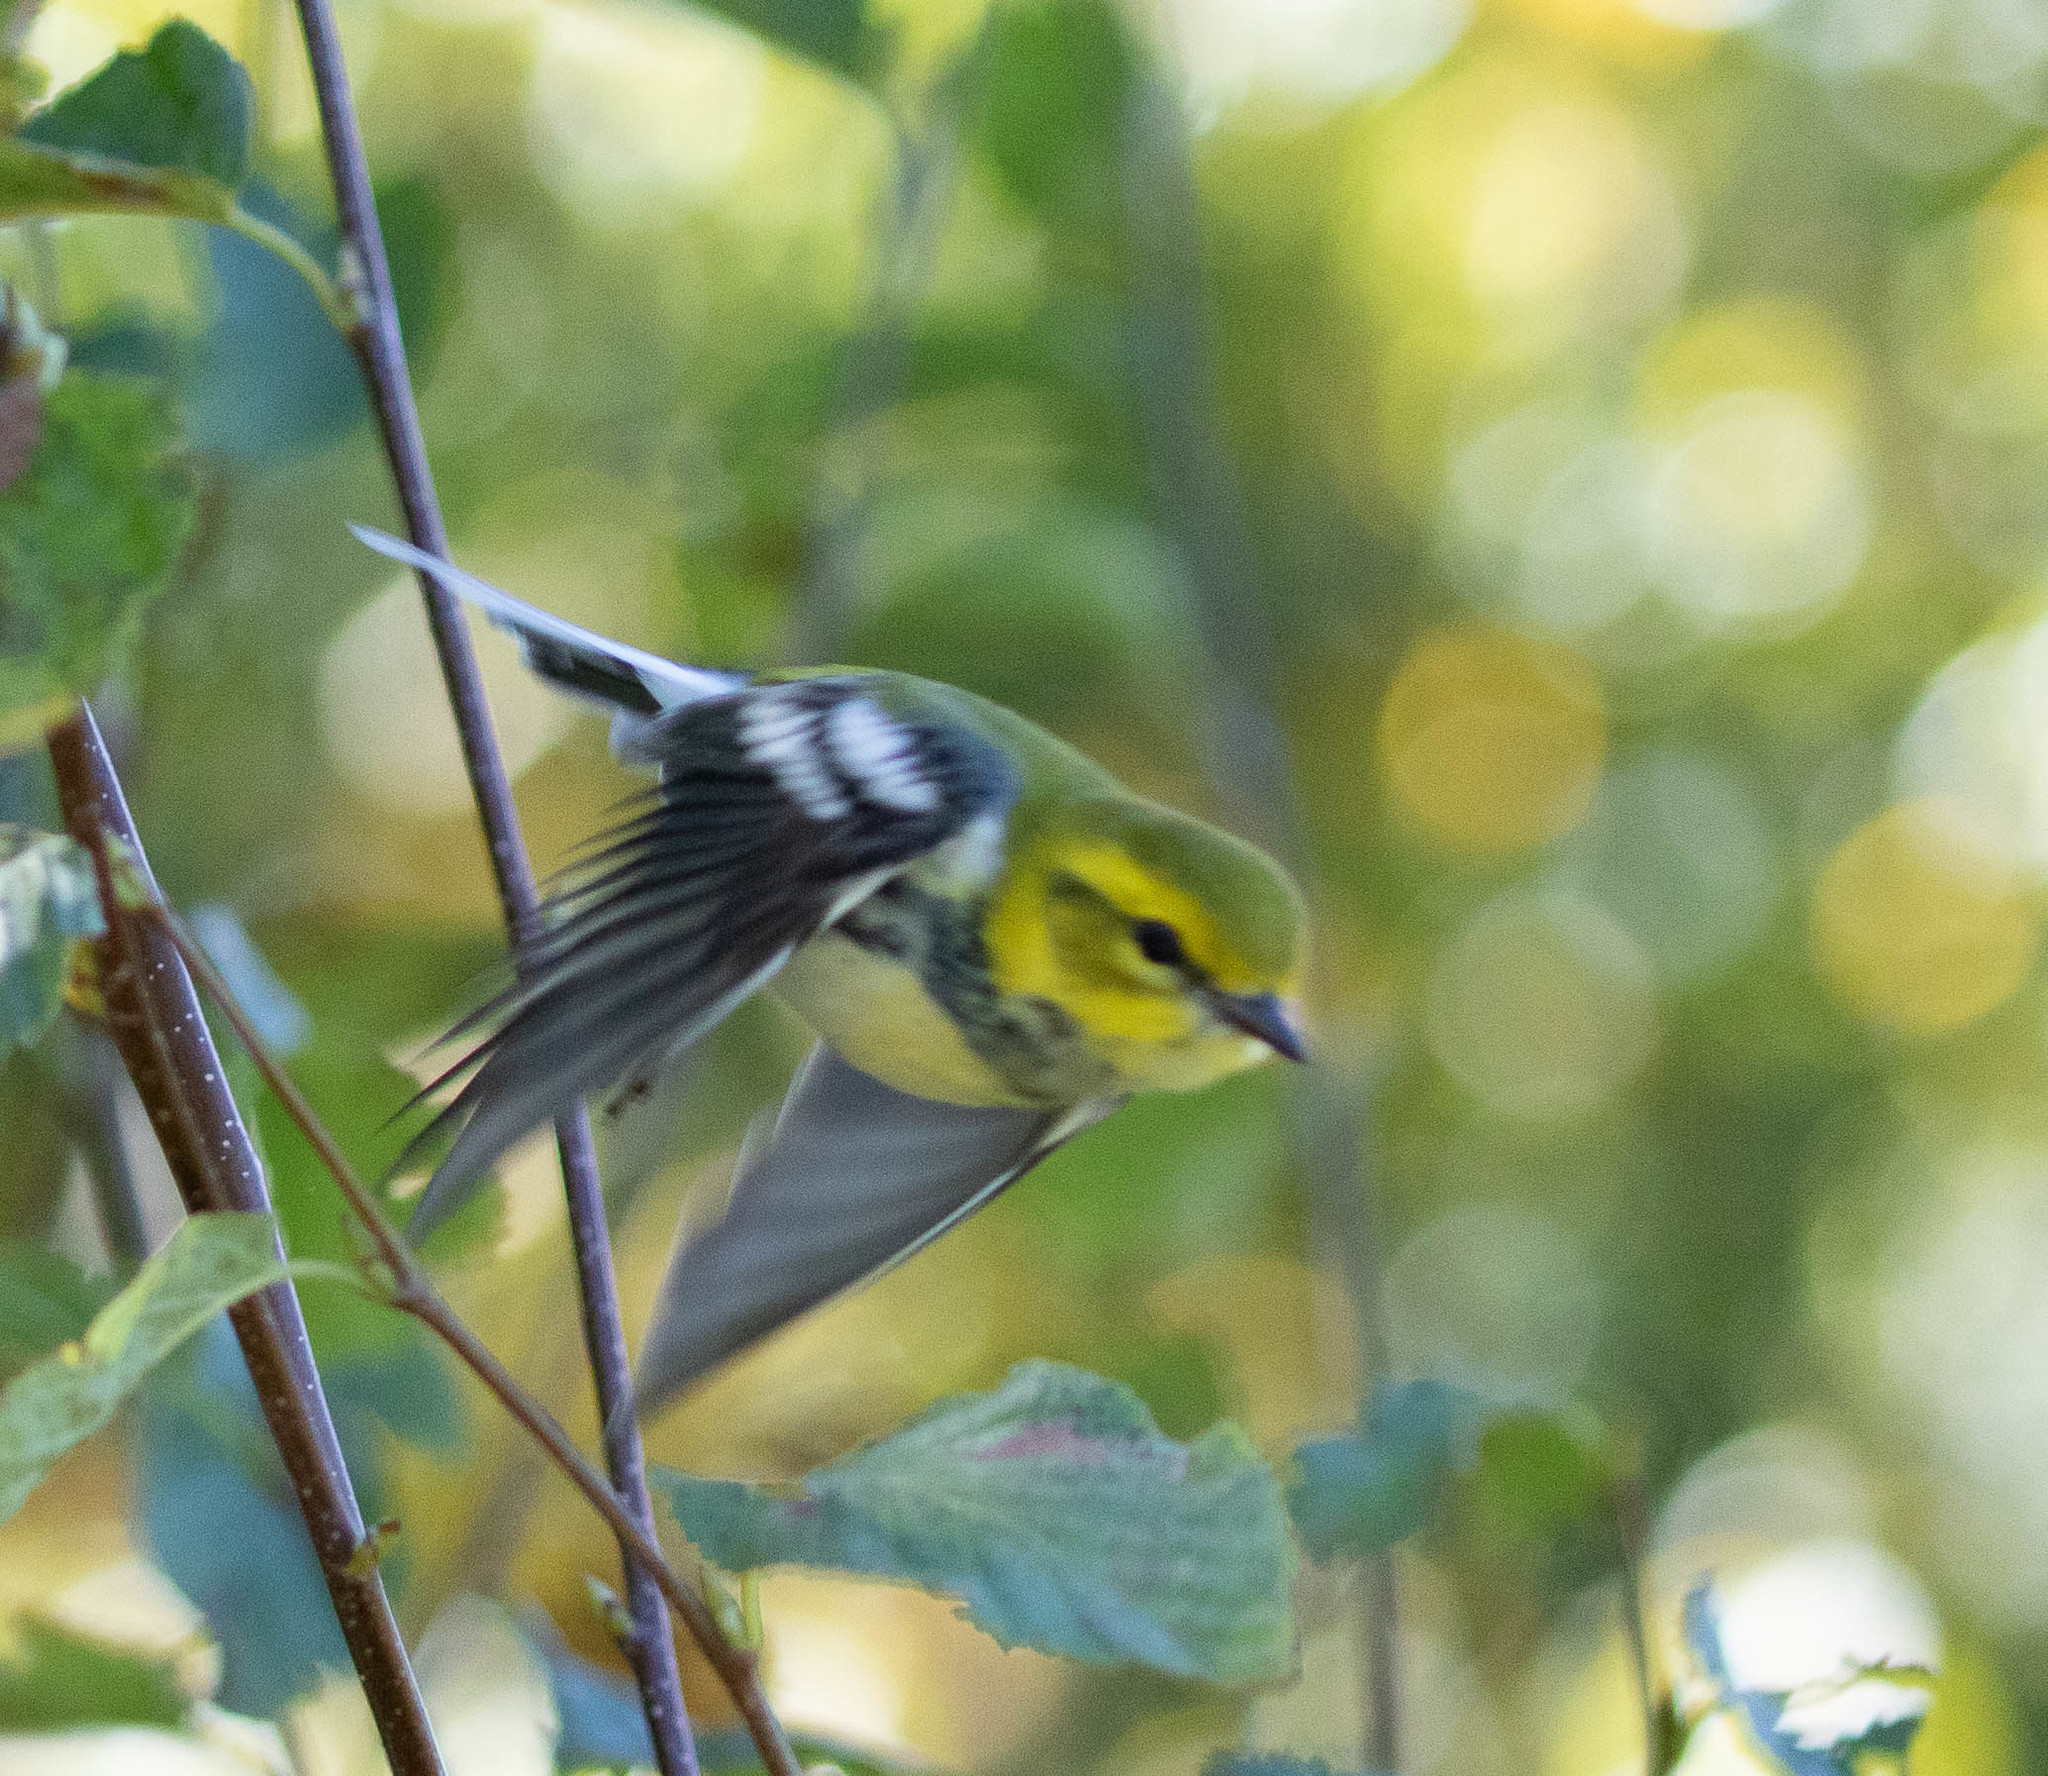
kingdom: Animalia
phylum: Chordata
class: Aves
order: Passeriformes
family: Parulidae
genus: Setophaga
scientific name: Setophaga virens
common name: Black-throated green warbler
